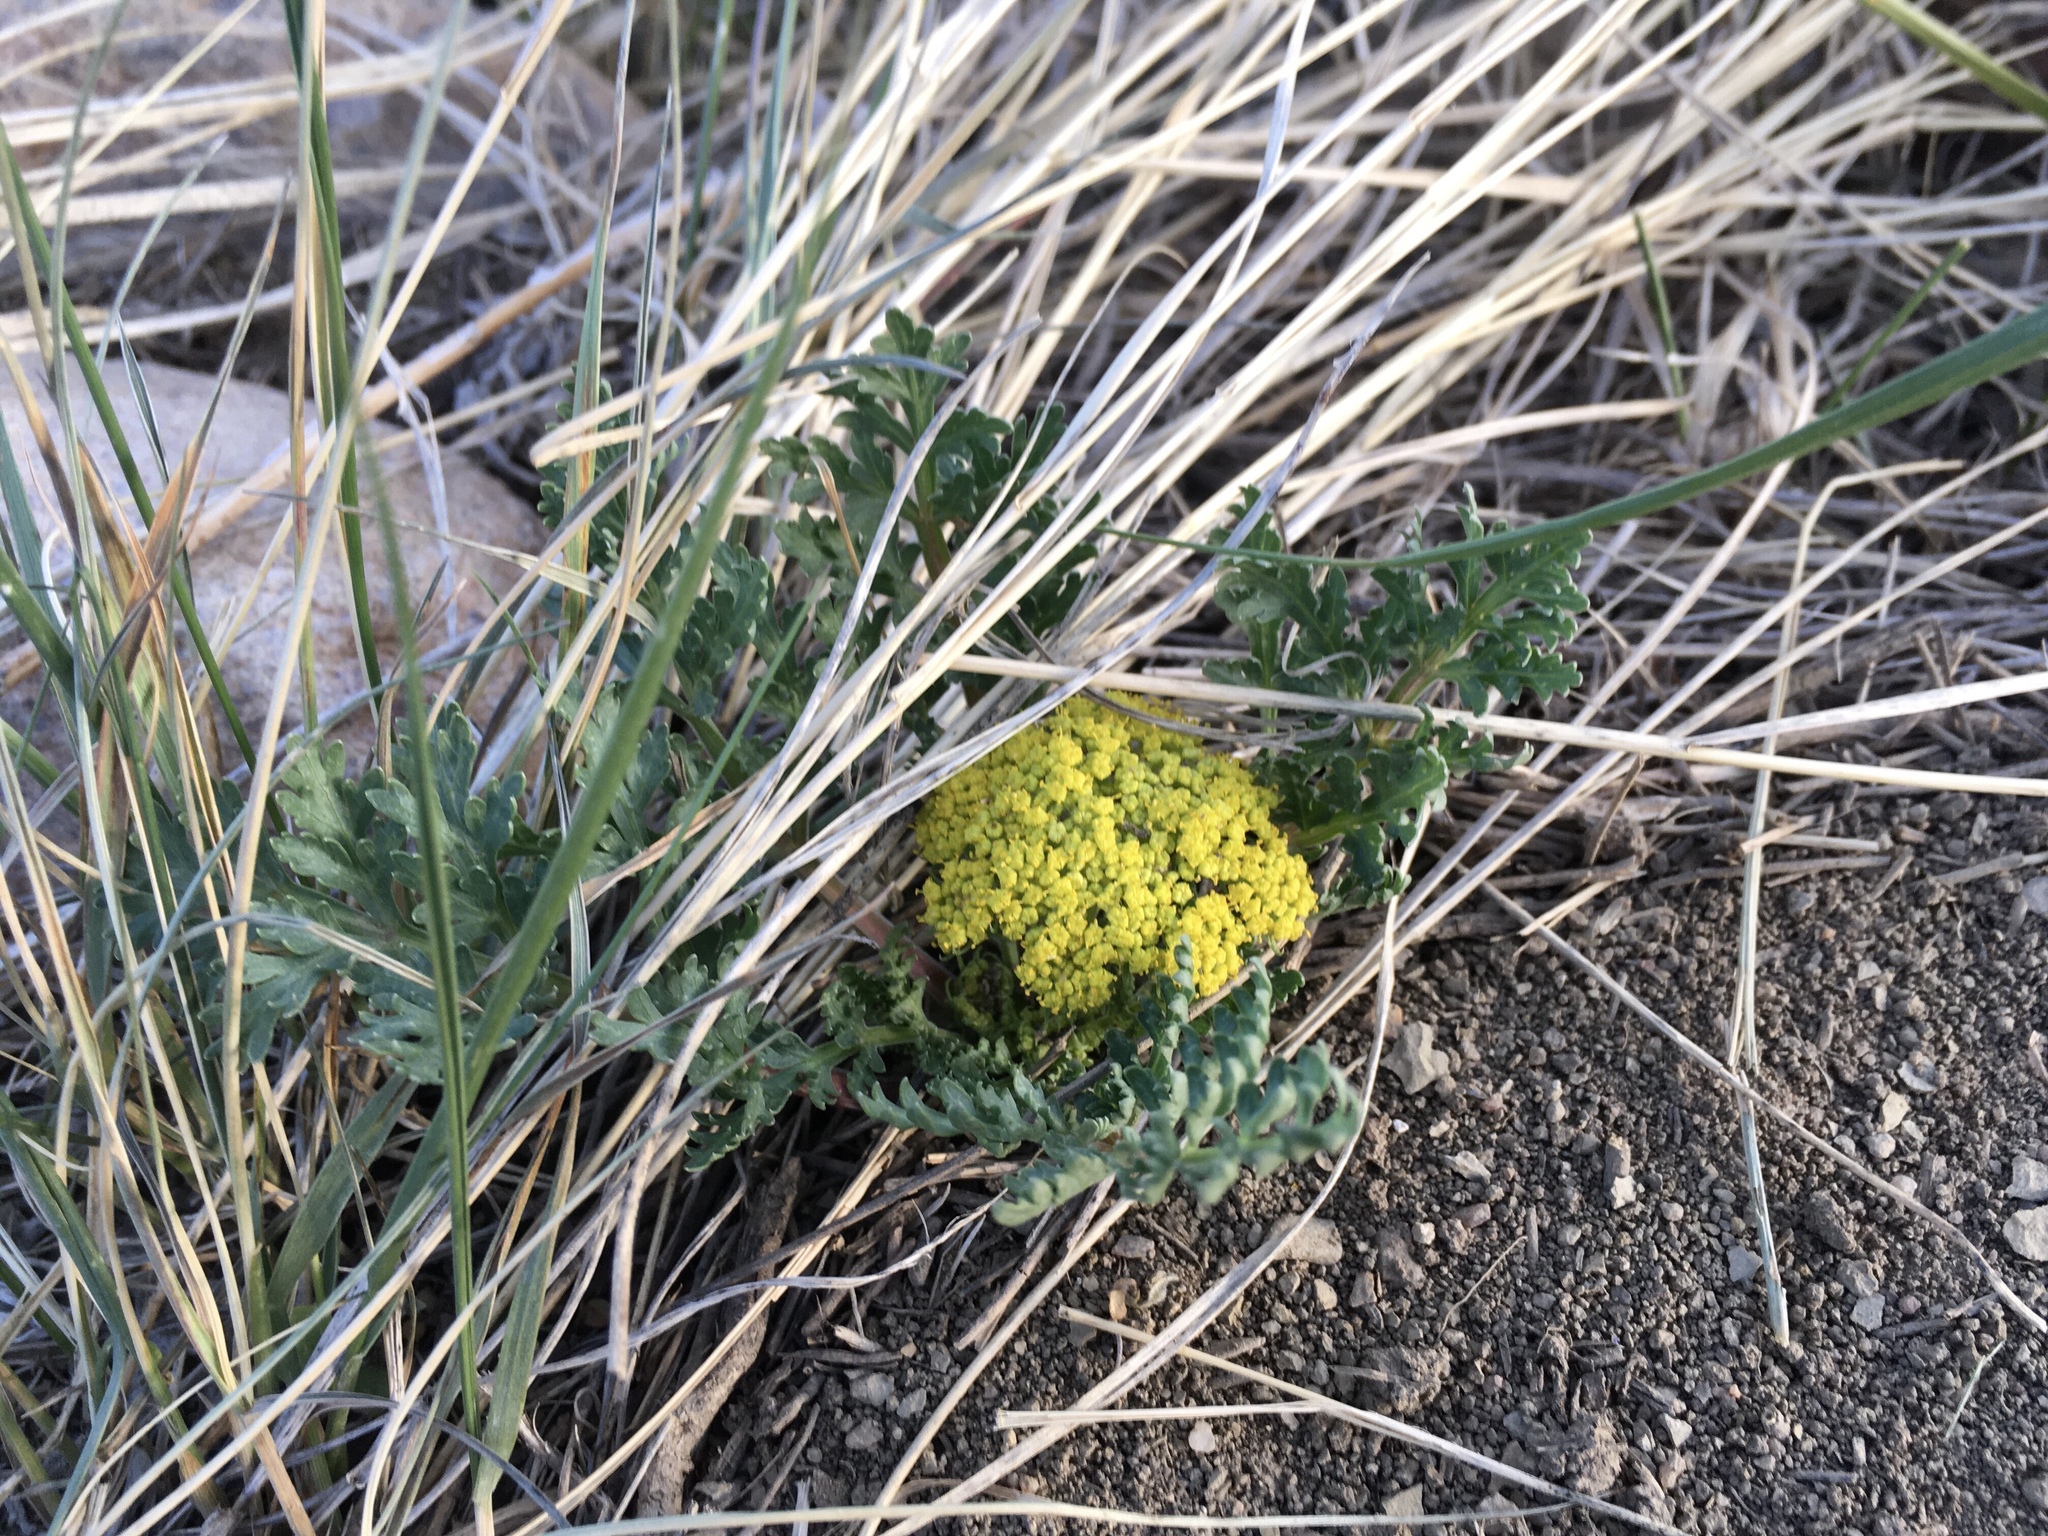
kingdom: Plantae
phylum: Tracheophyta
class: Magnoliopsida
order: Apiales
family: Apiaceae
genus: Musineon
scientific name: Musineon divaricatum
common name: Plains musineon
